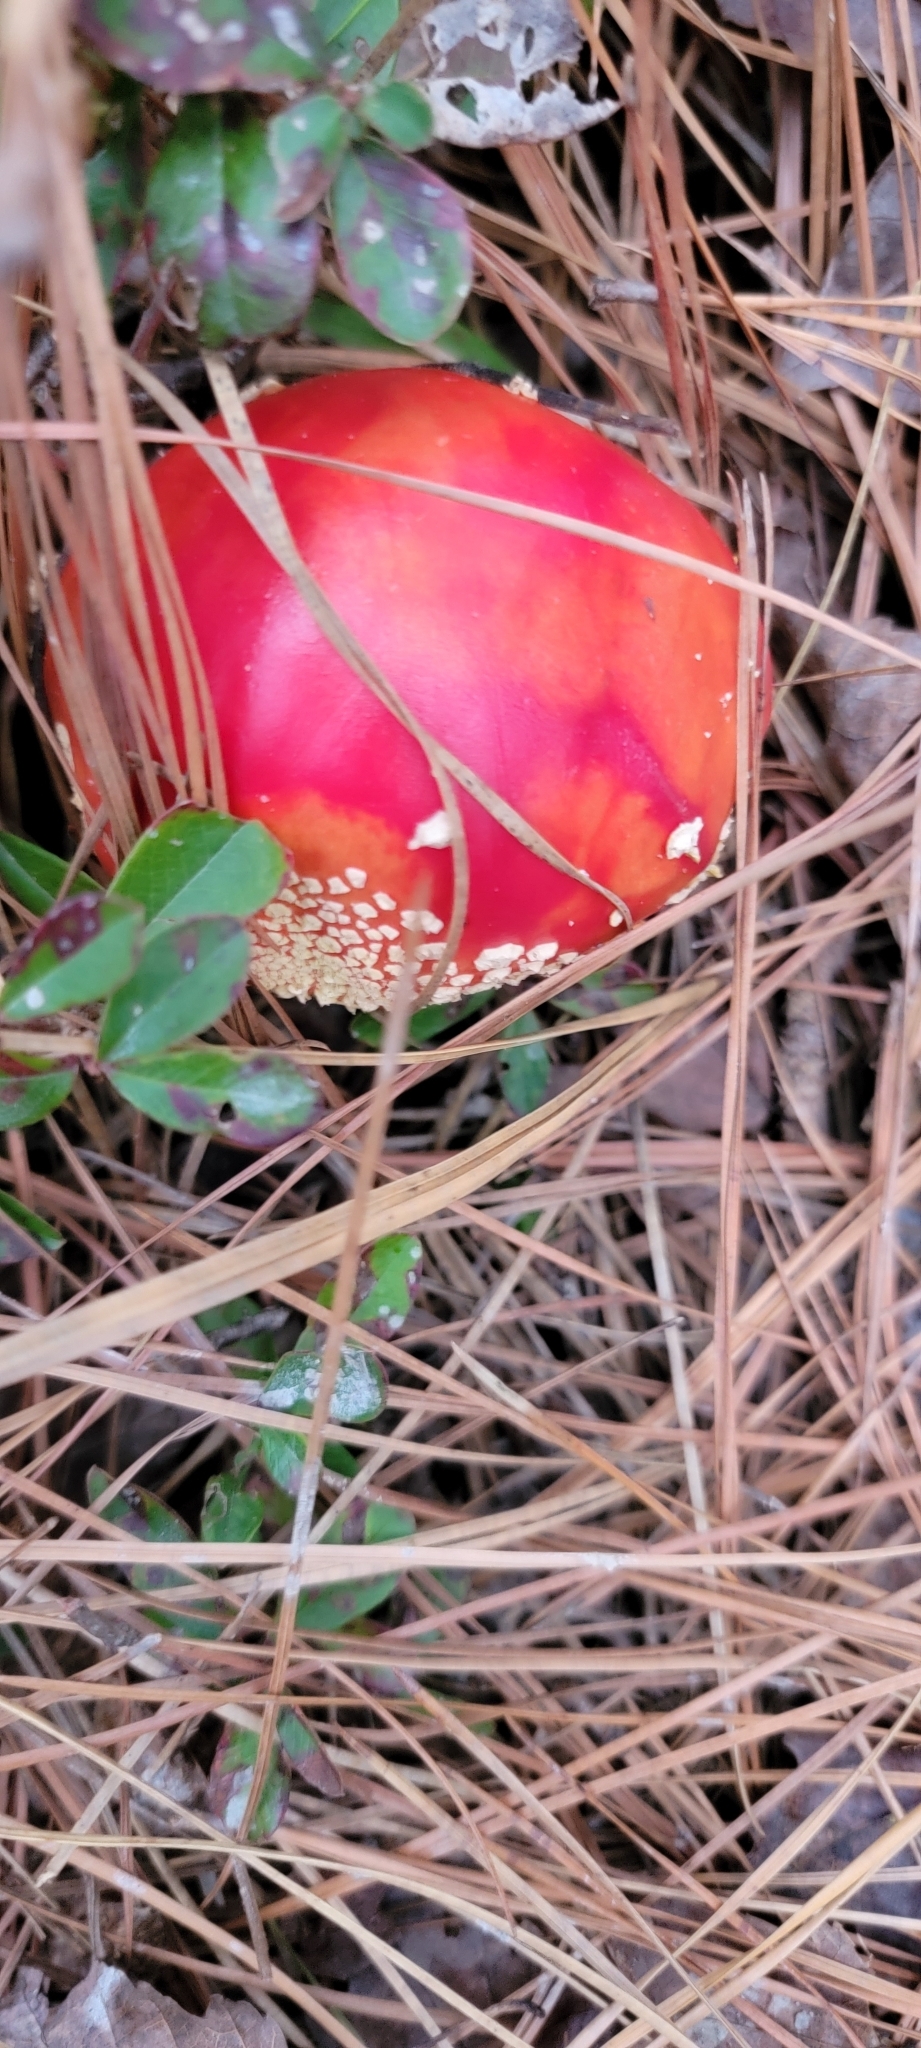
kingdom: Fungi
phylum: Basidiomycota
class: Agaricomycetes
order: Agaricales
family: Amanitaceae
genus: Amanita
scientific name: Amanita persicina
